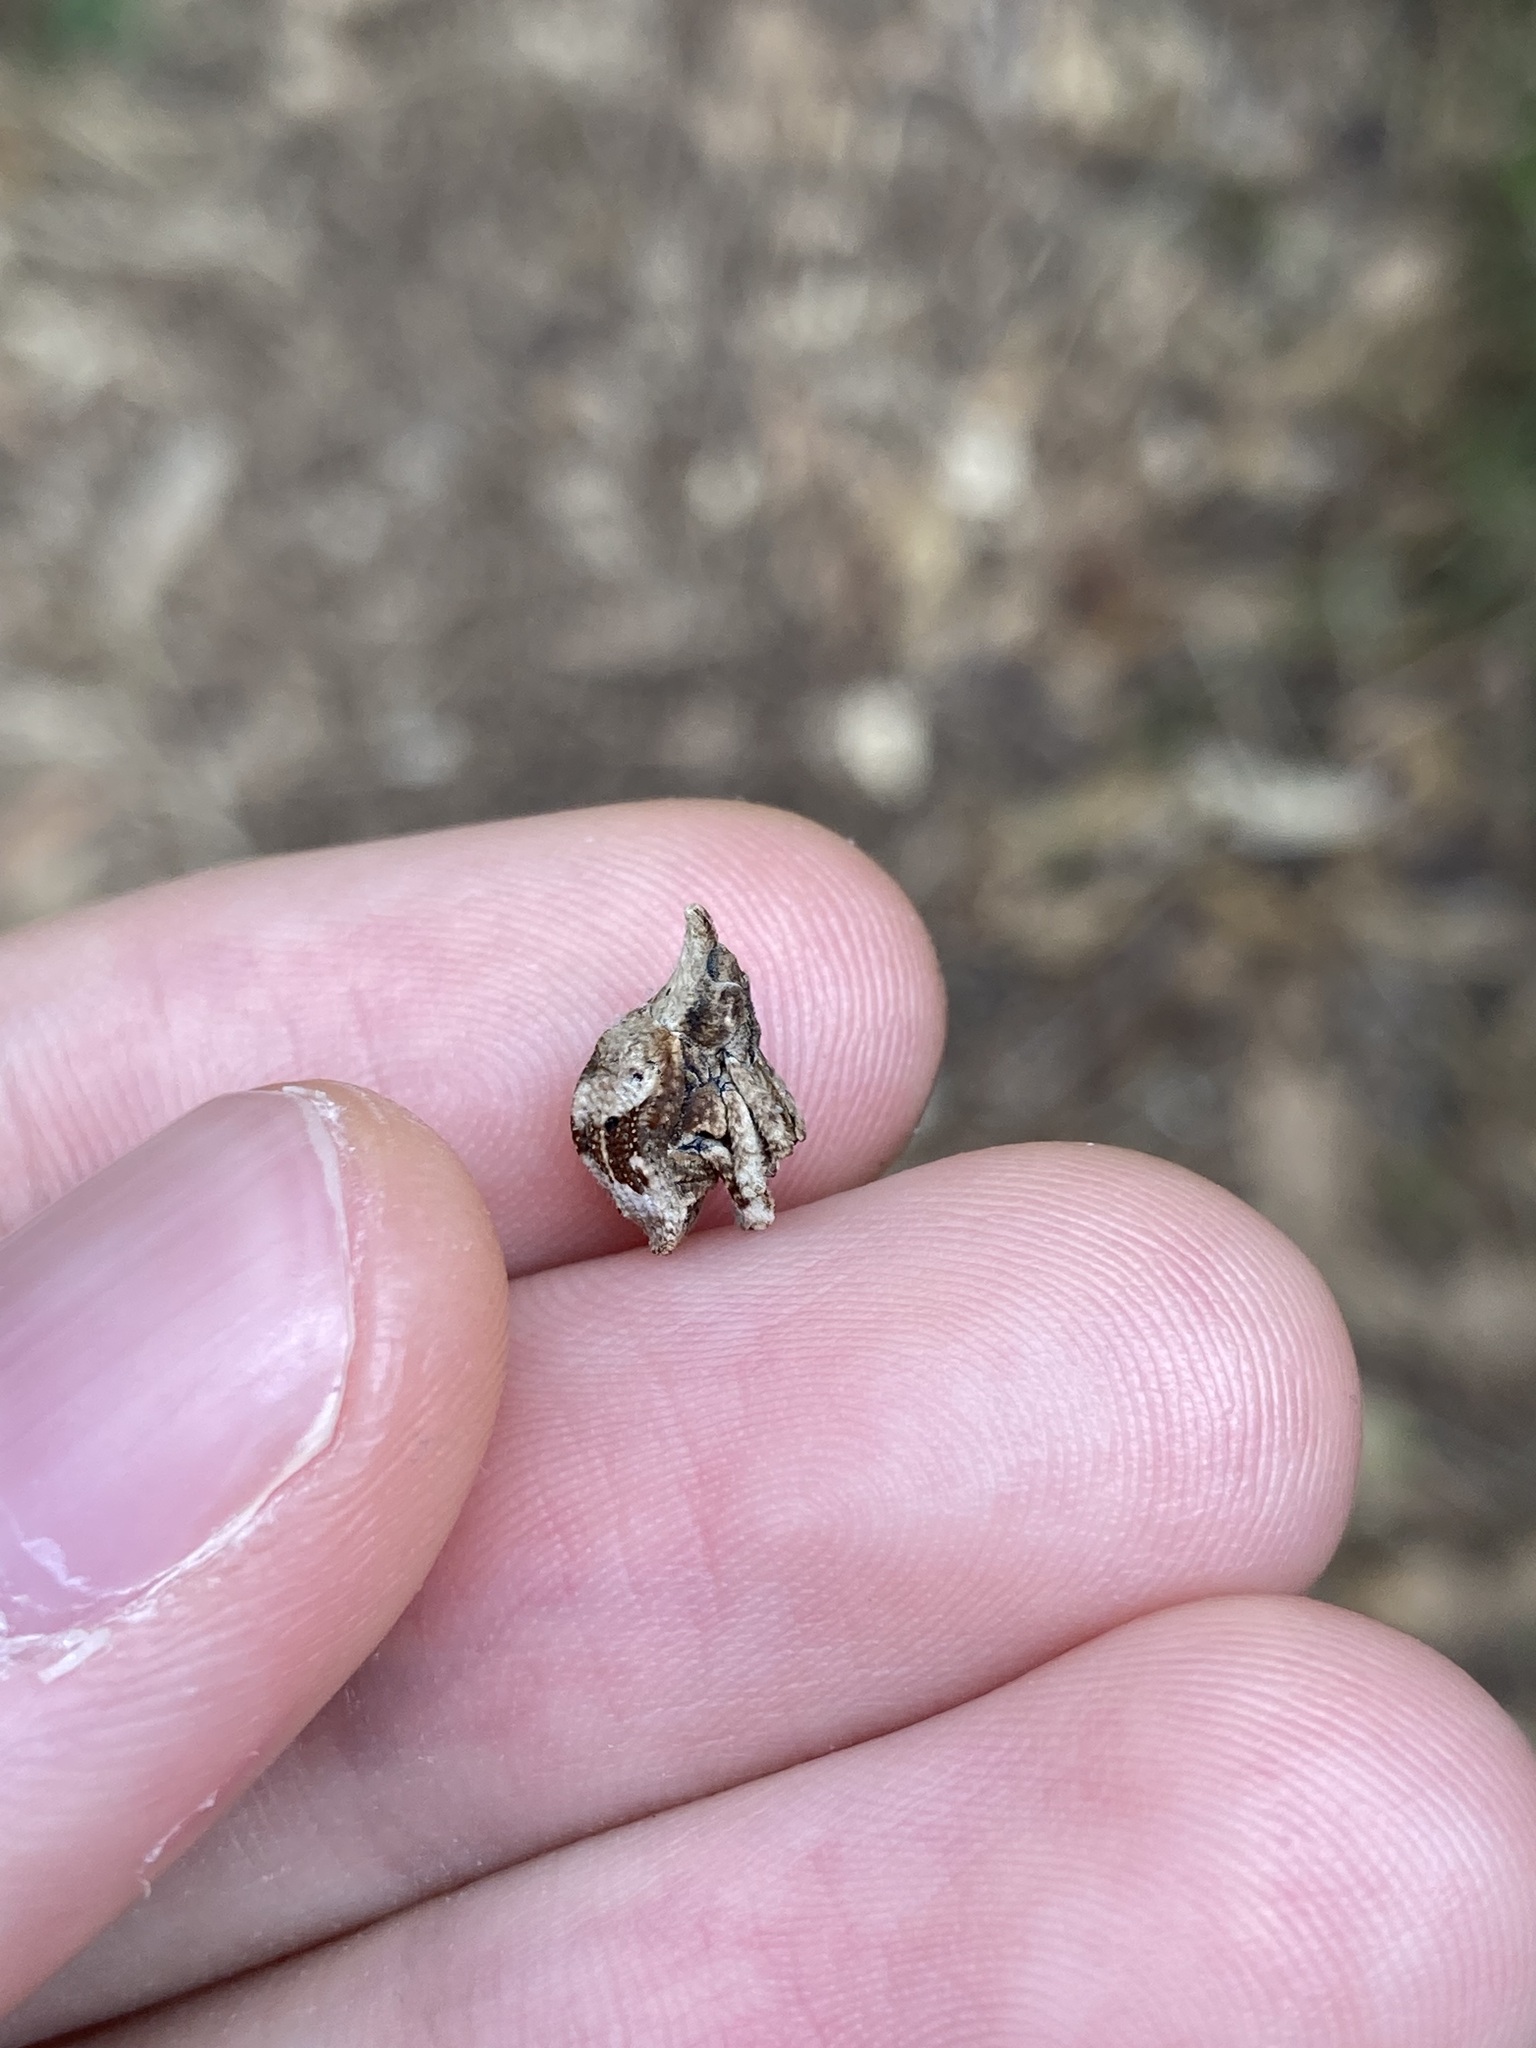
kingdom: Animalia
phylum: Arthropoda
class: Insecta
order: Coleoptera
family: Curculionidae
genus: Oemethylus
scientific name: Oemethylus
